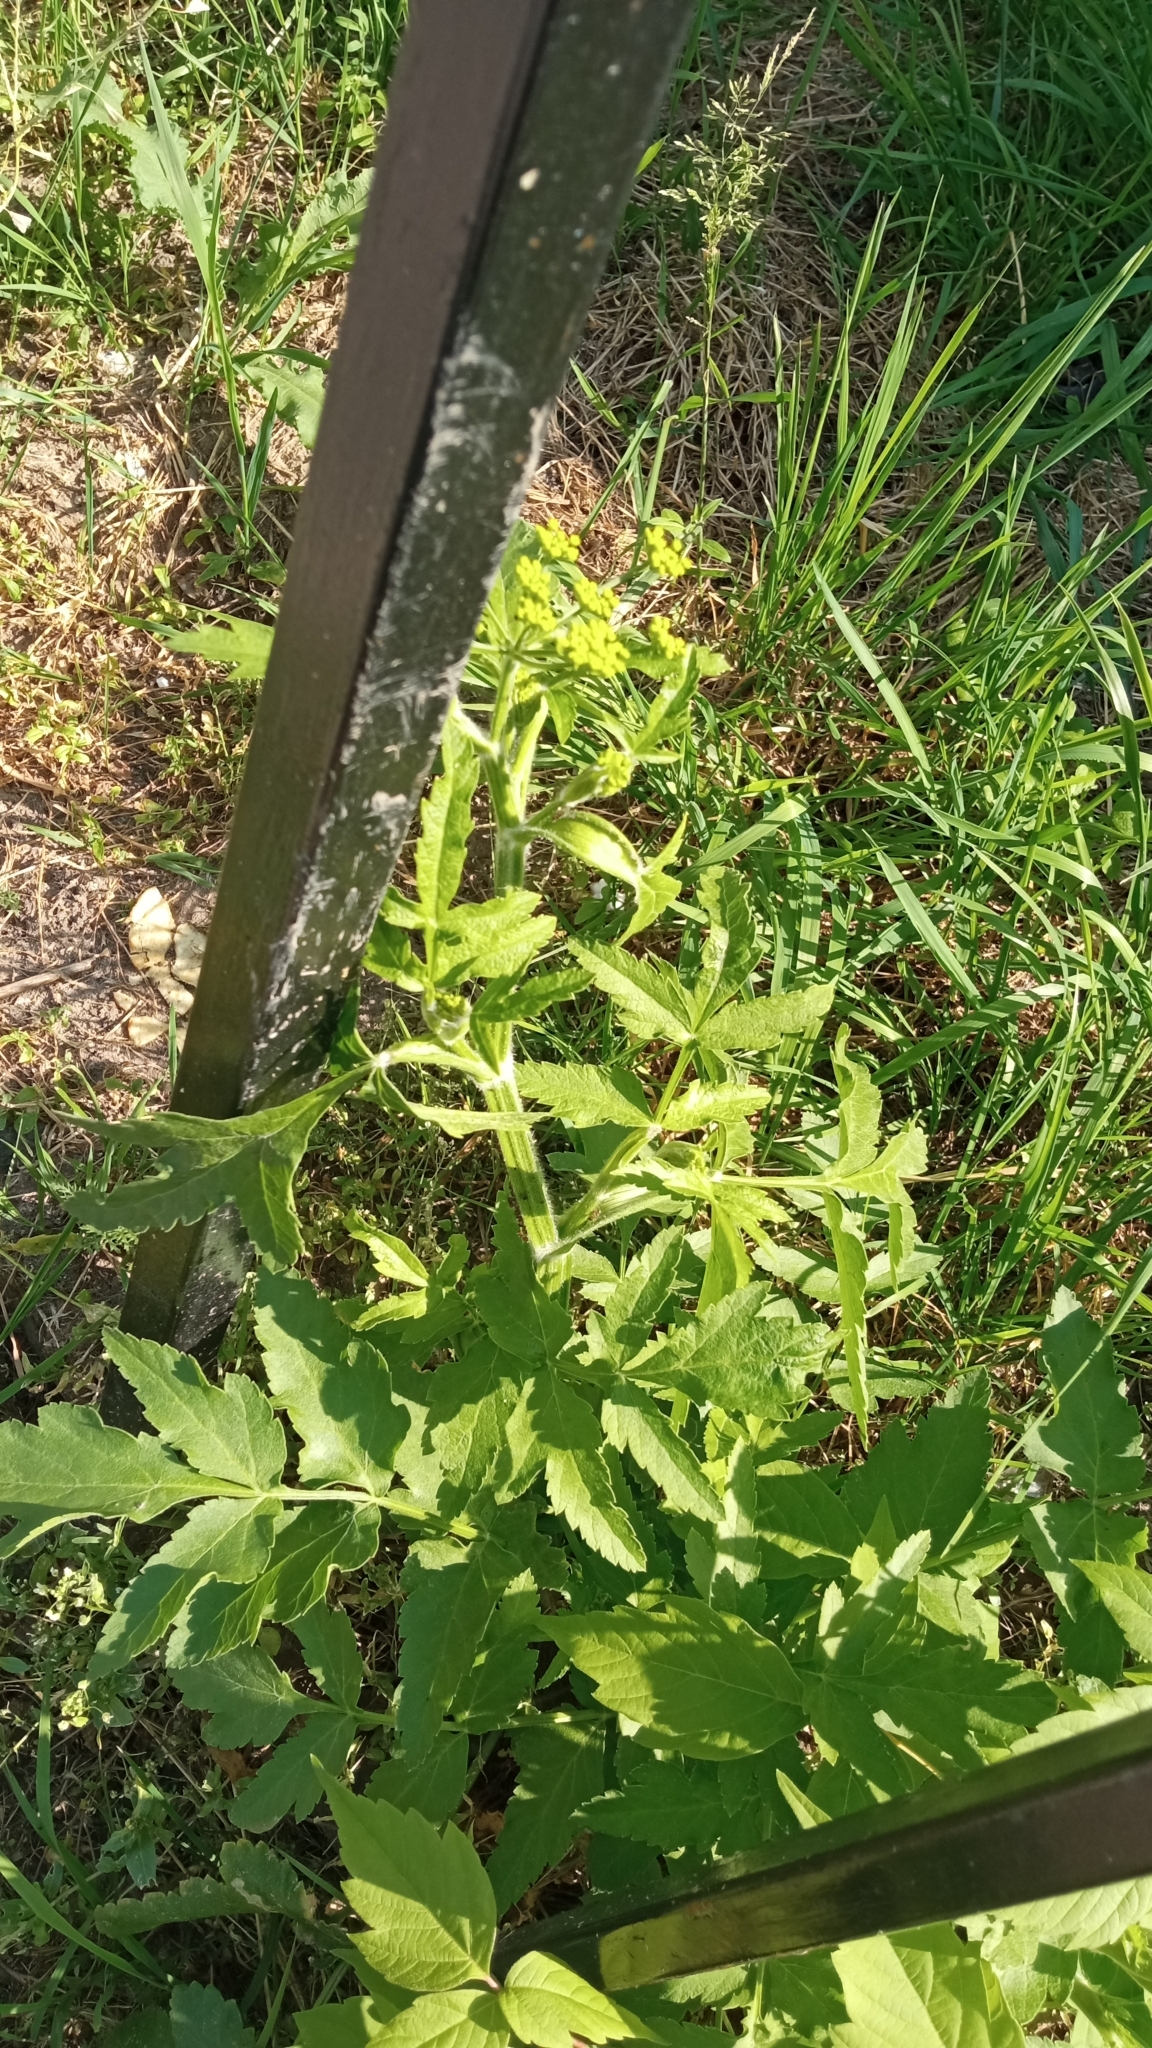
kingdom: Plantae
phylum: Tracheophyta
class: Magnoliopsida
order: Apiales
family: Apiaceae
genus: Pastinaca
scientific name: Pastinaca sativa
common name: Wild parsnip
